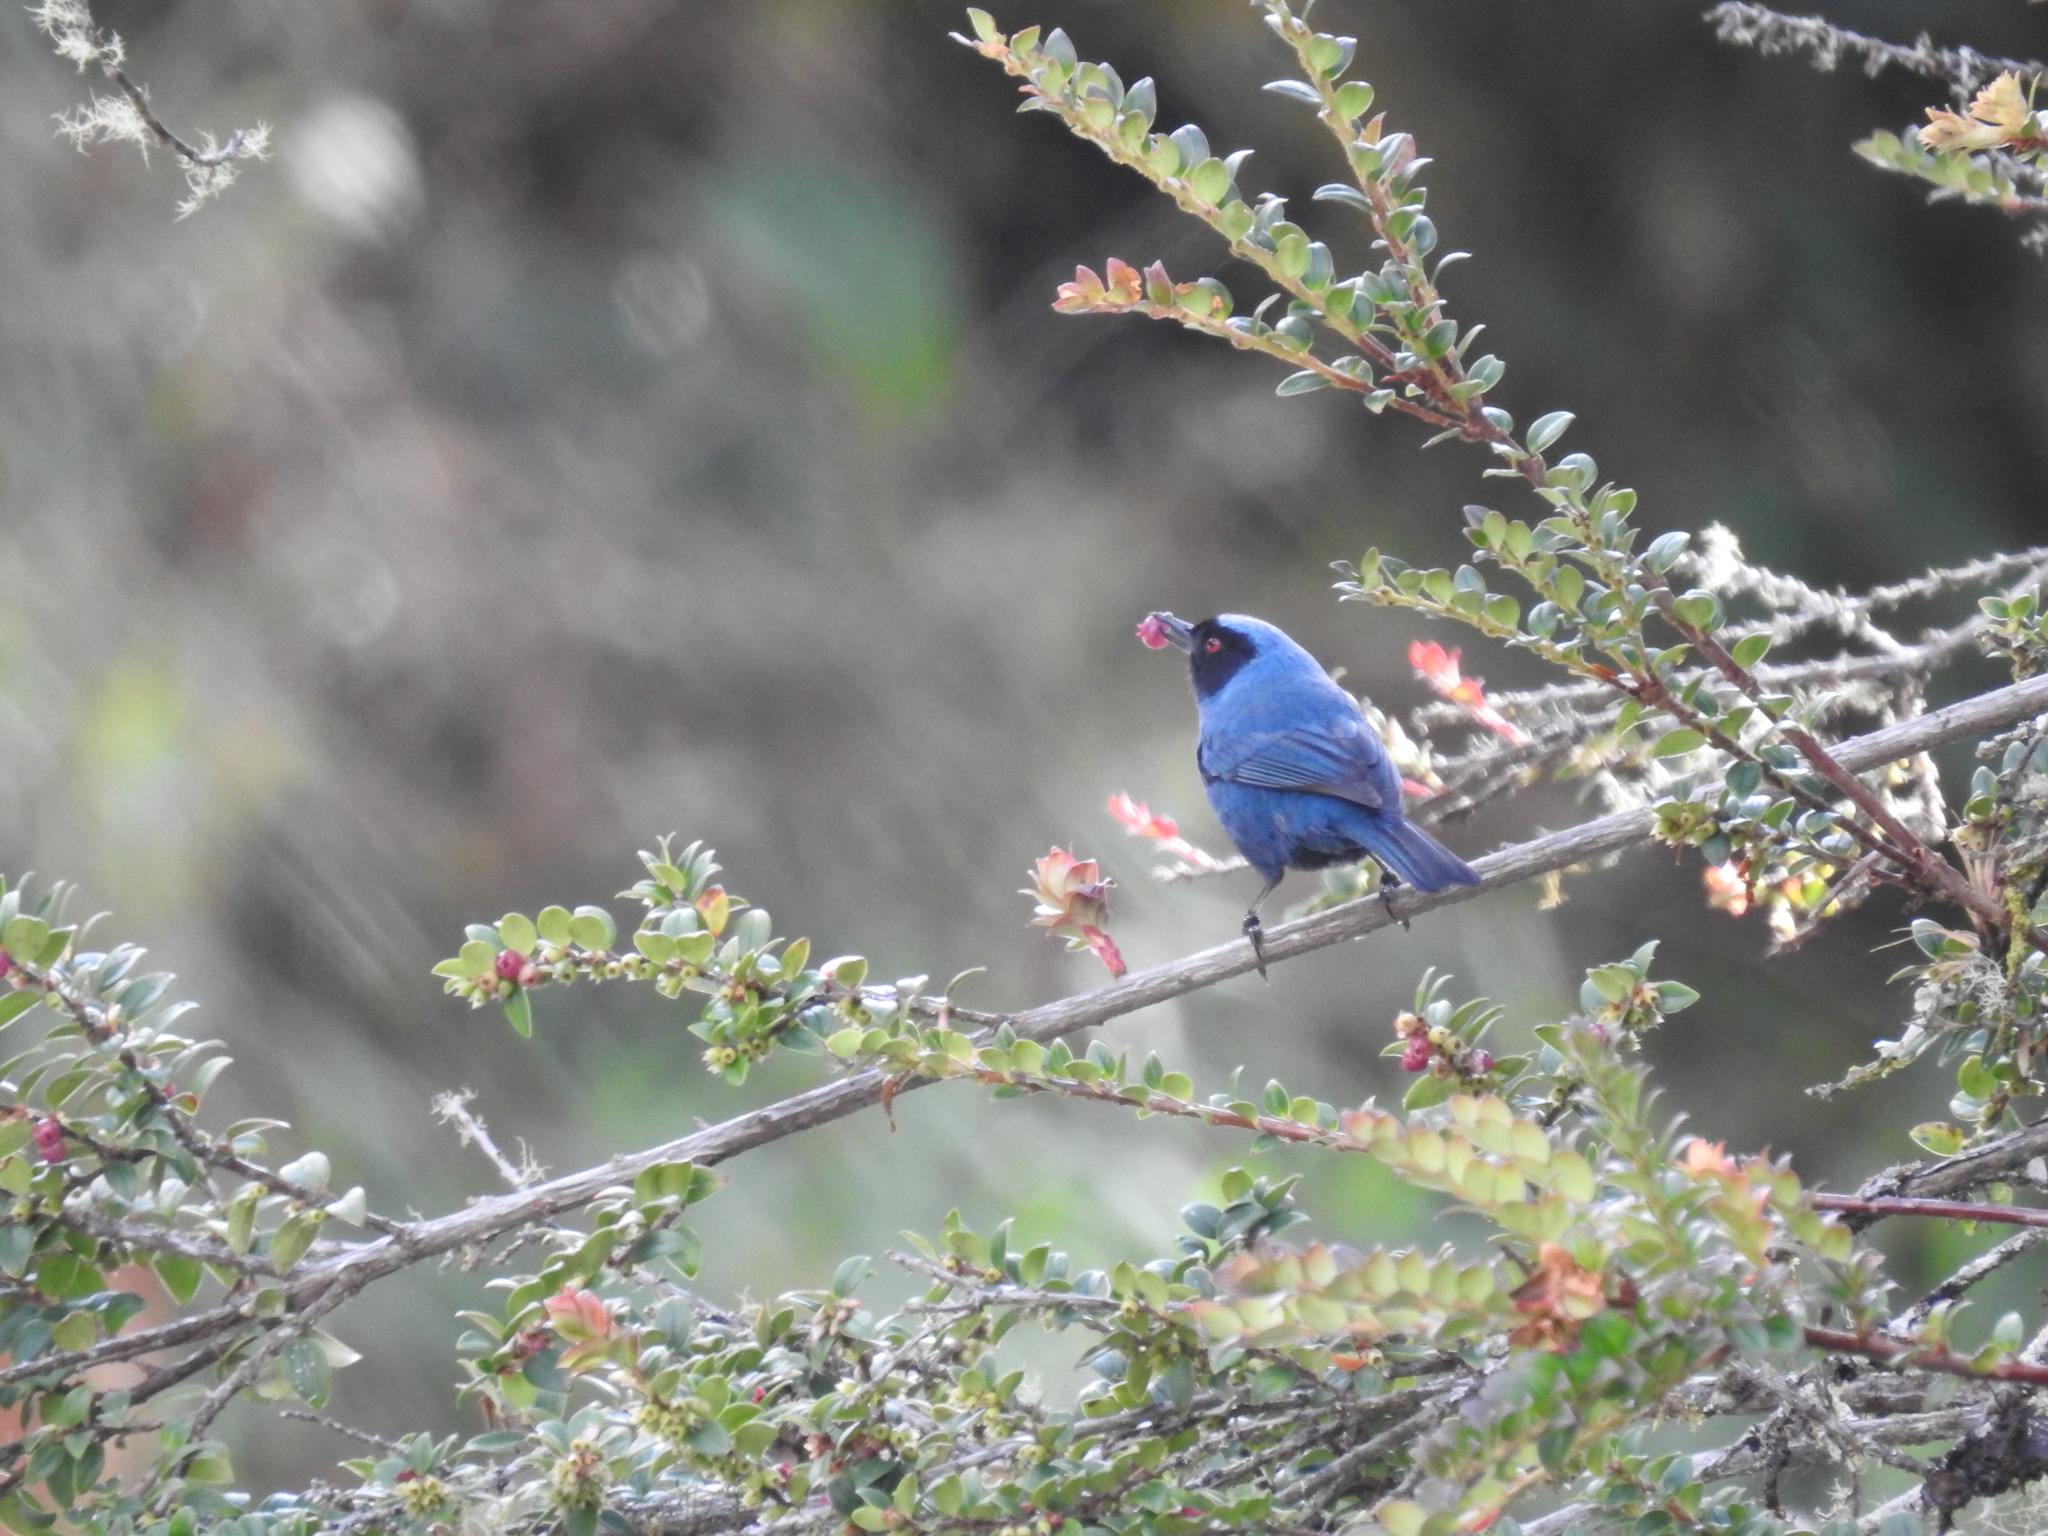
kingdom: Animalia
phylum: Chordata
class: Aves
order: Passeriformes
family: Thraupidae
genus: Diglossa
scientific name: Diglossa cyanea
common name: Masked flowerpiercer
